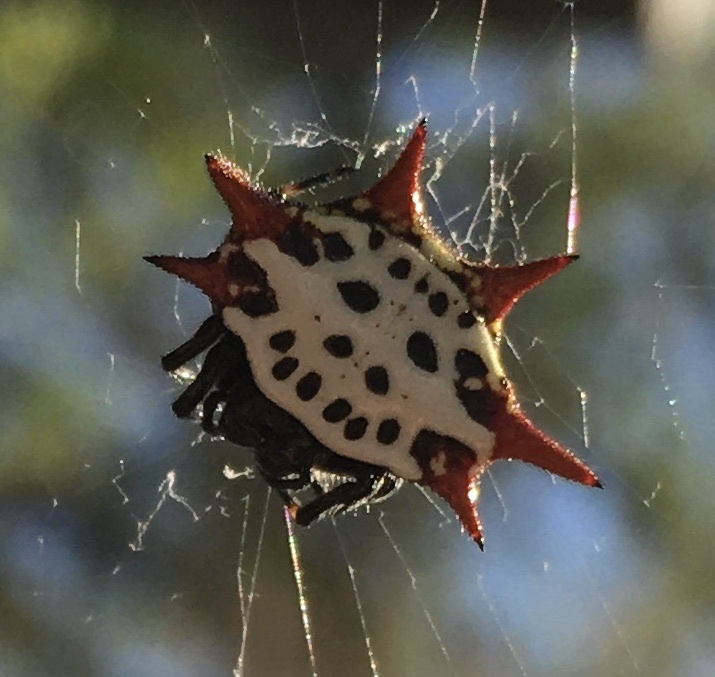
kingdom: Animalia
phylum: Arthropoda
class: Arachnida
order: Araneae
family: Araneidae
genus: Gasteracantha
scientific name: Gasteracantha cancriformis
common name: Orb weavers
